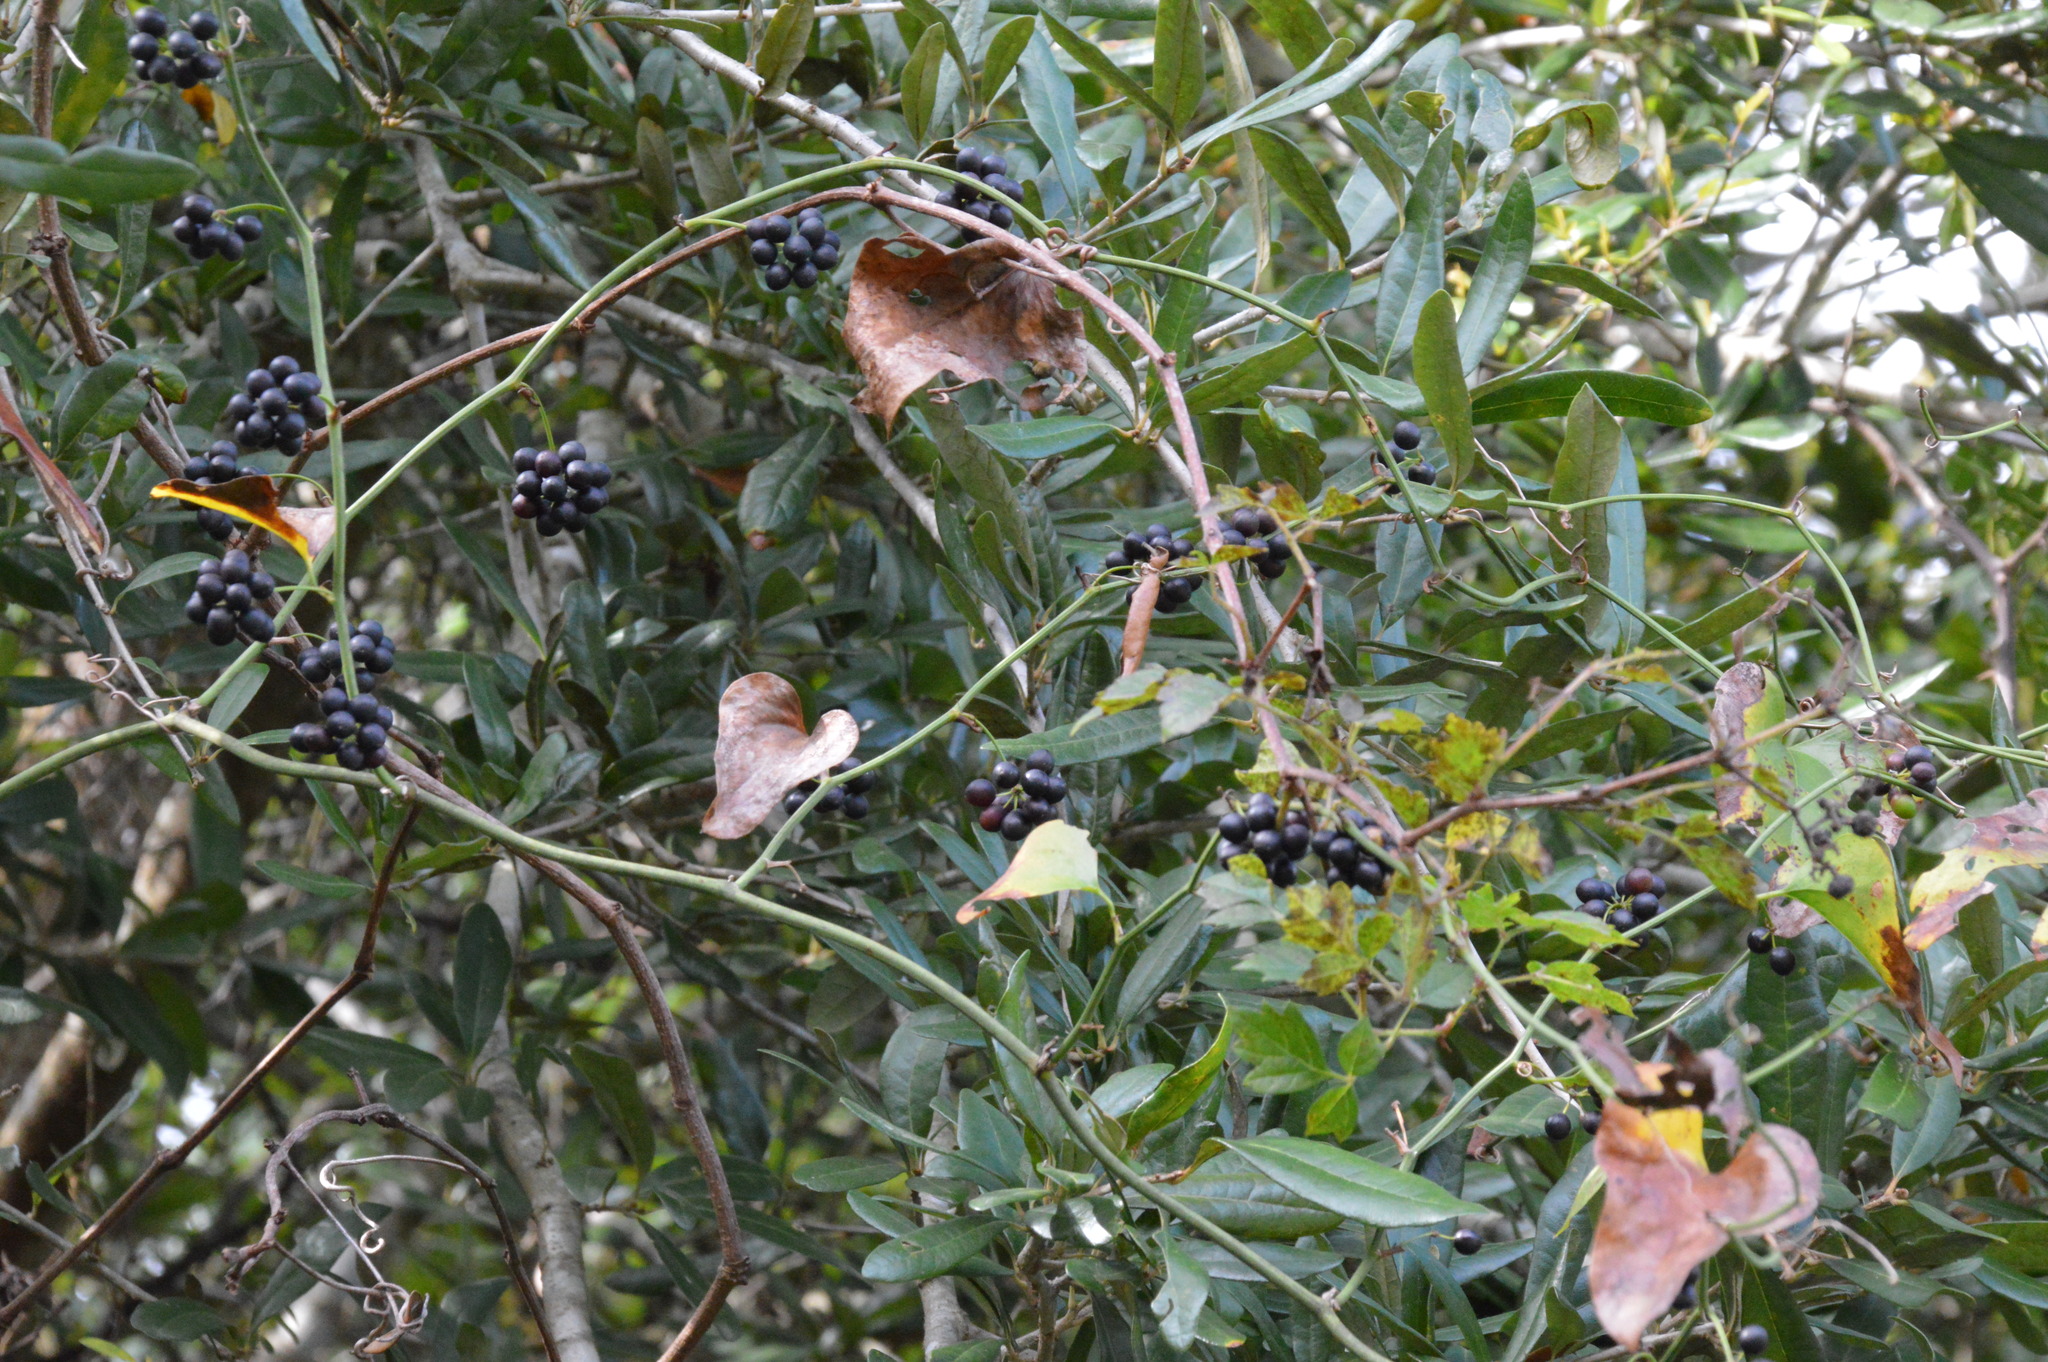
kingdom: Plantae
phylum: Tracheophyta
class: Liliopsida
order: Liliales
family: Smilacaceae
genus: Smilax
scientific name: Smilax bona-nox
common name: Catbrier
